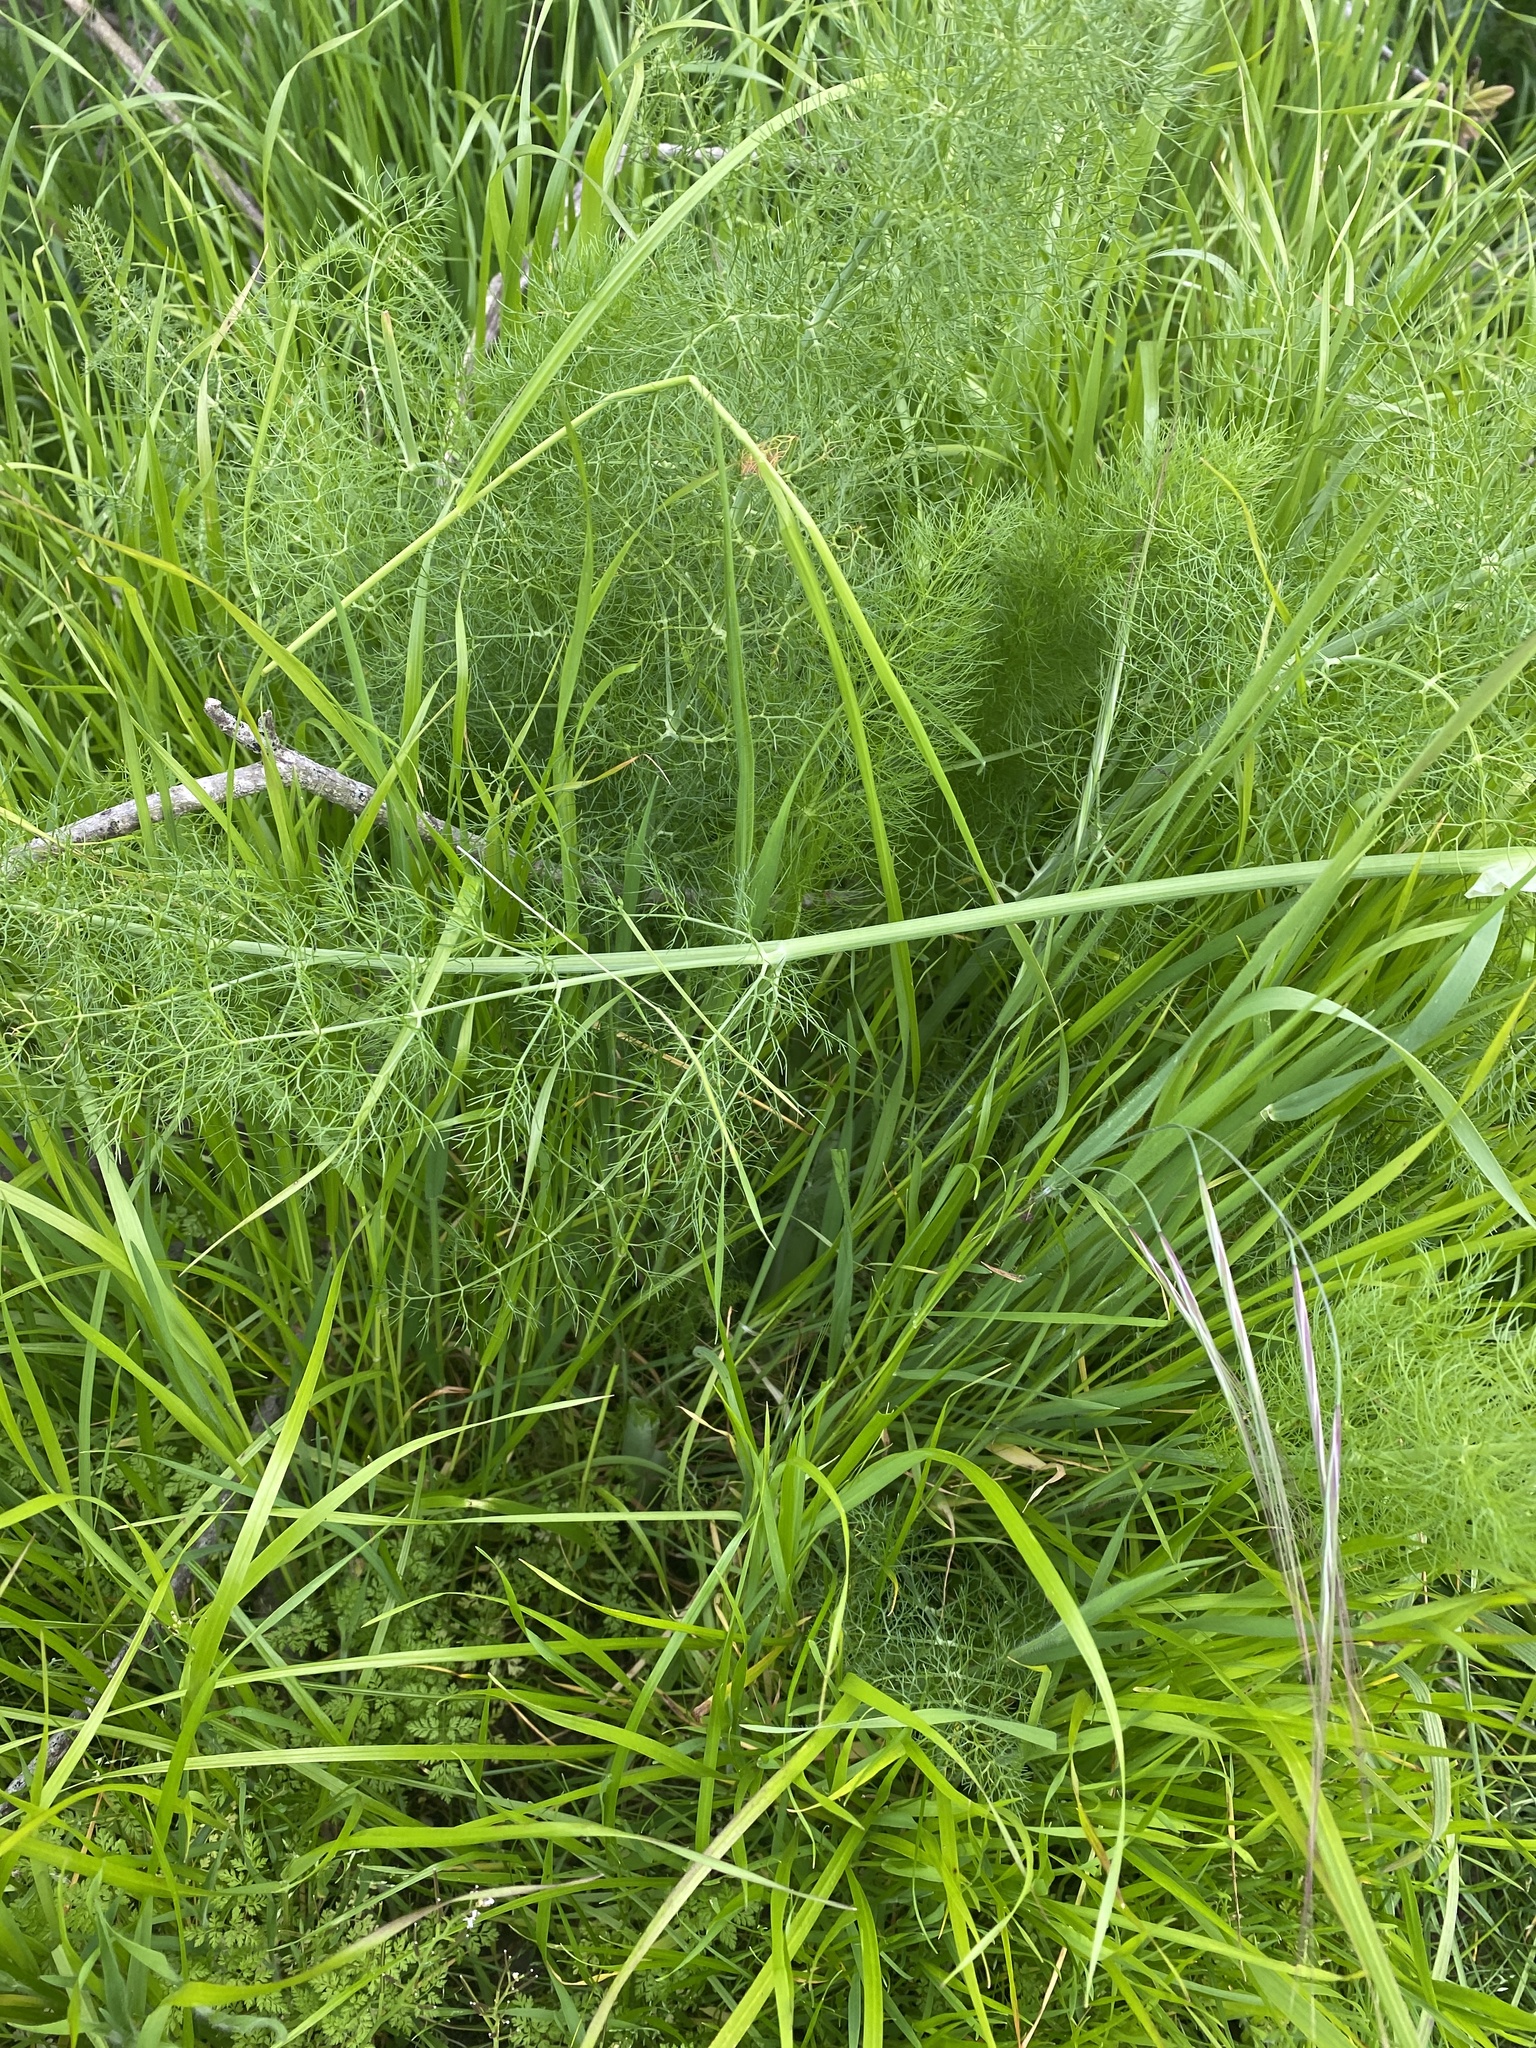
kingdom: Plantae
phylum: Tracheophyta
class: Magnoliopsida
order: Apiales
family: Apiaceae
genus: Foeniculum
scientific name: Foeniculum vulgare
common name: Fennel
